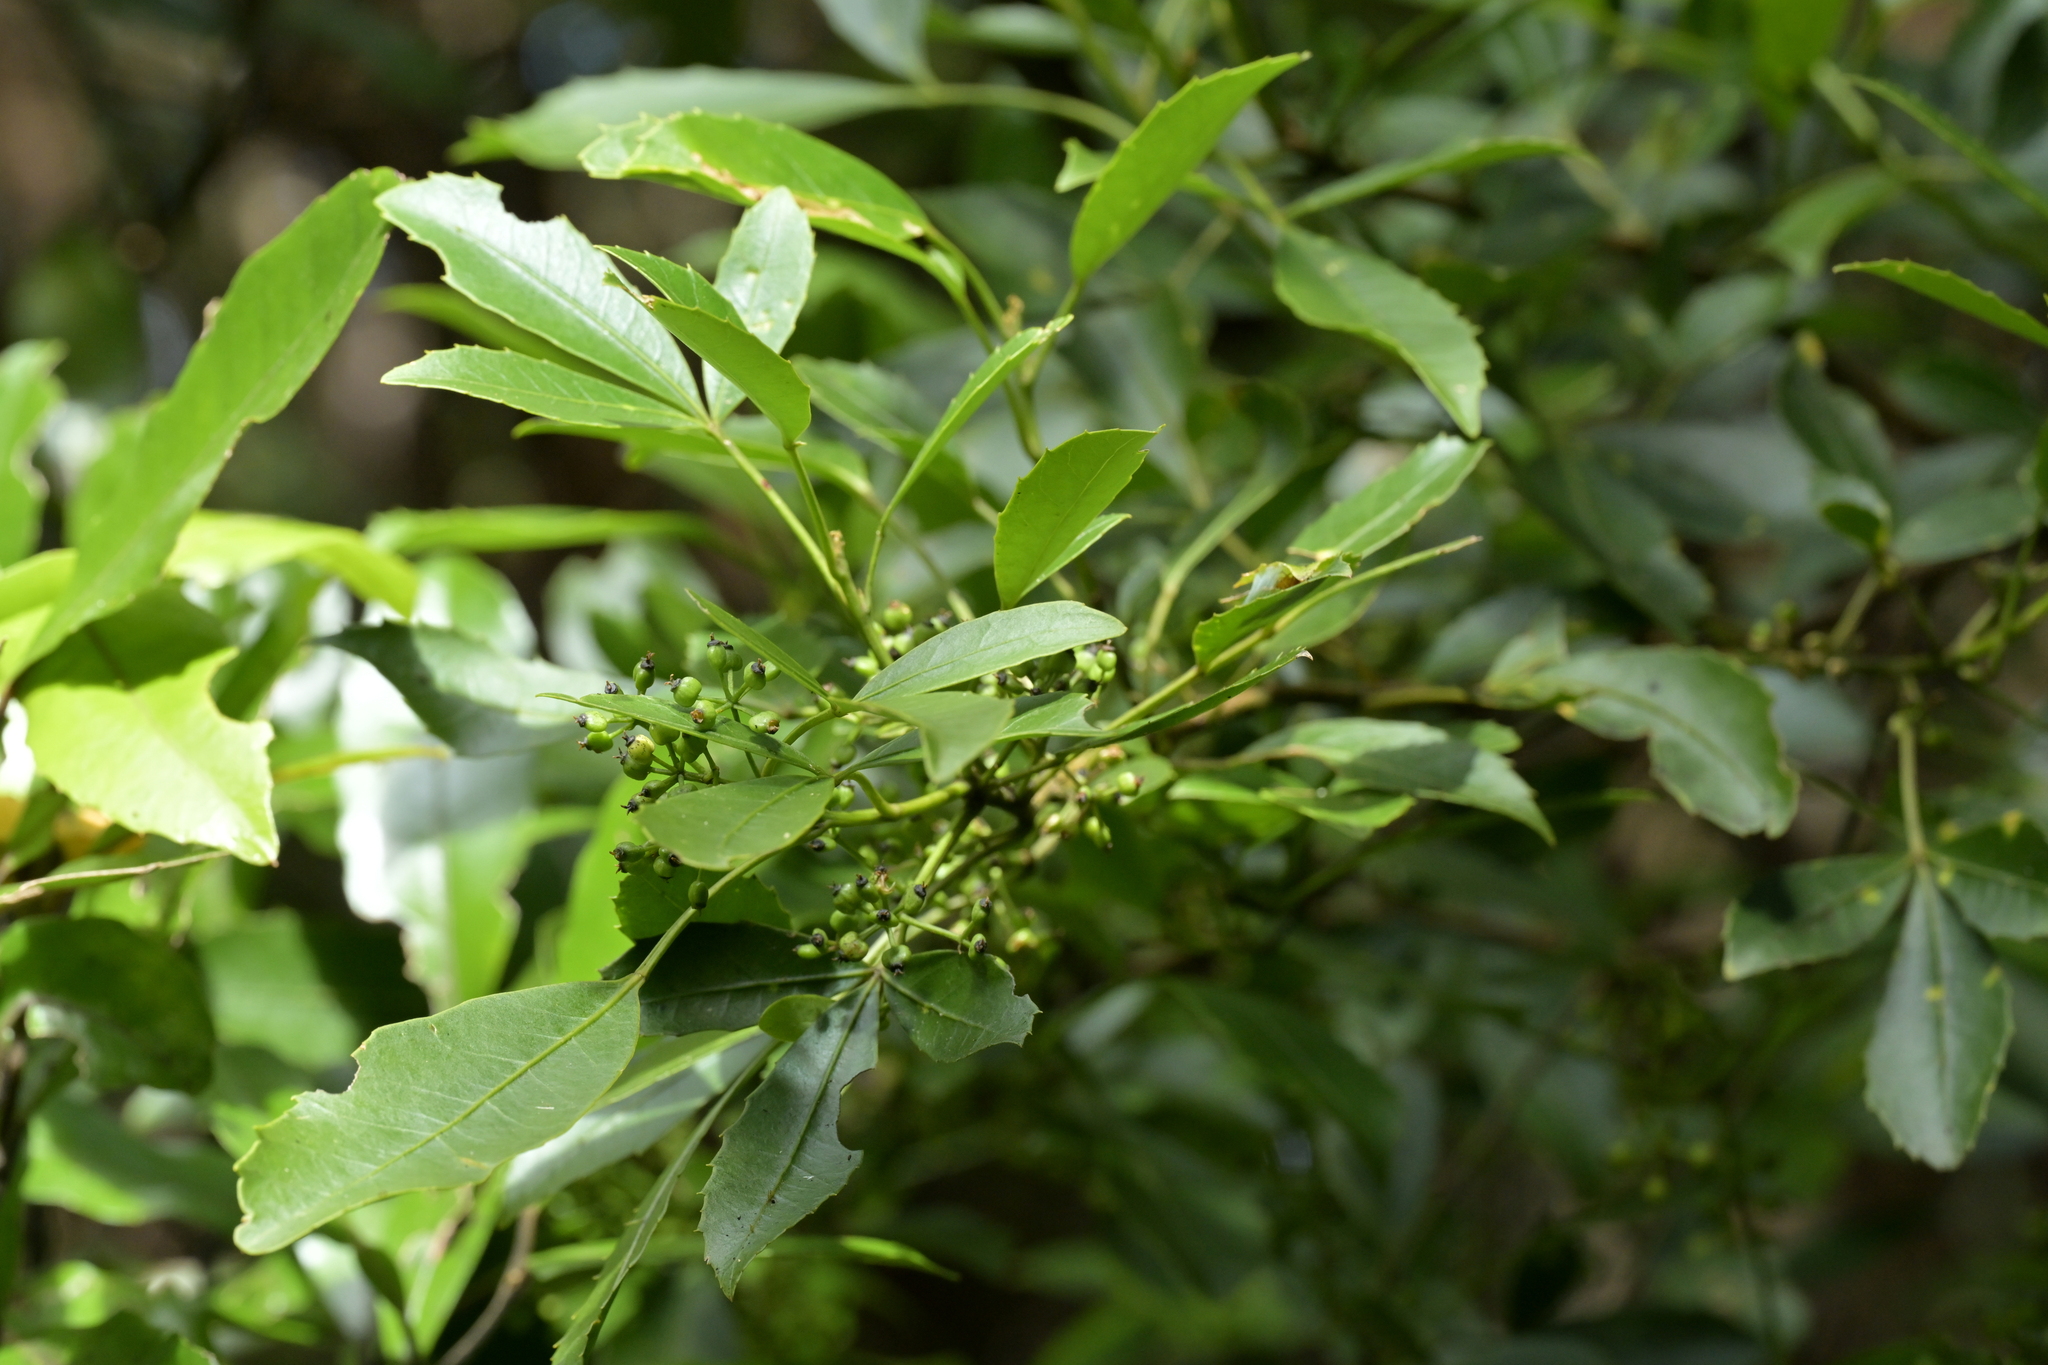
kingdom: Plantae
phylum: Tracheophyta
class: Magnoliopsida
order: Apiales
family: Araliaceae
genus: Raukaua
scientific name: Raukaua simplex
